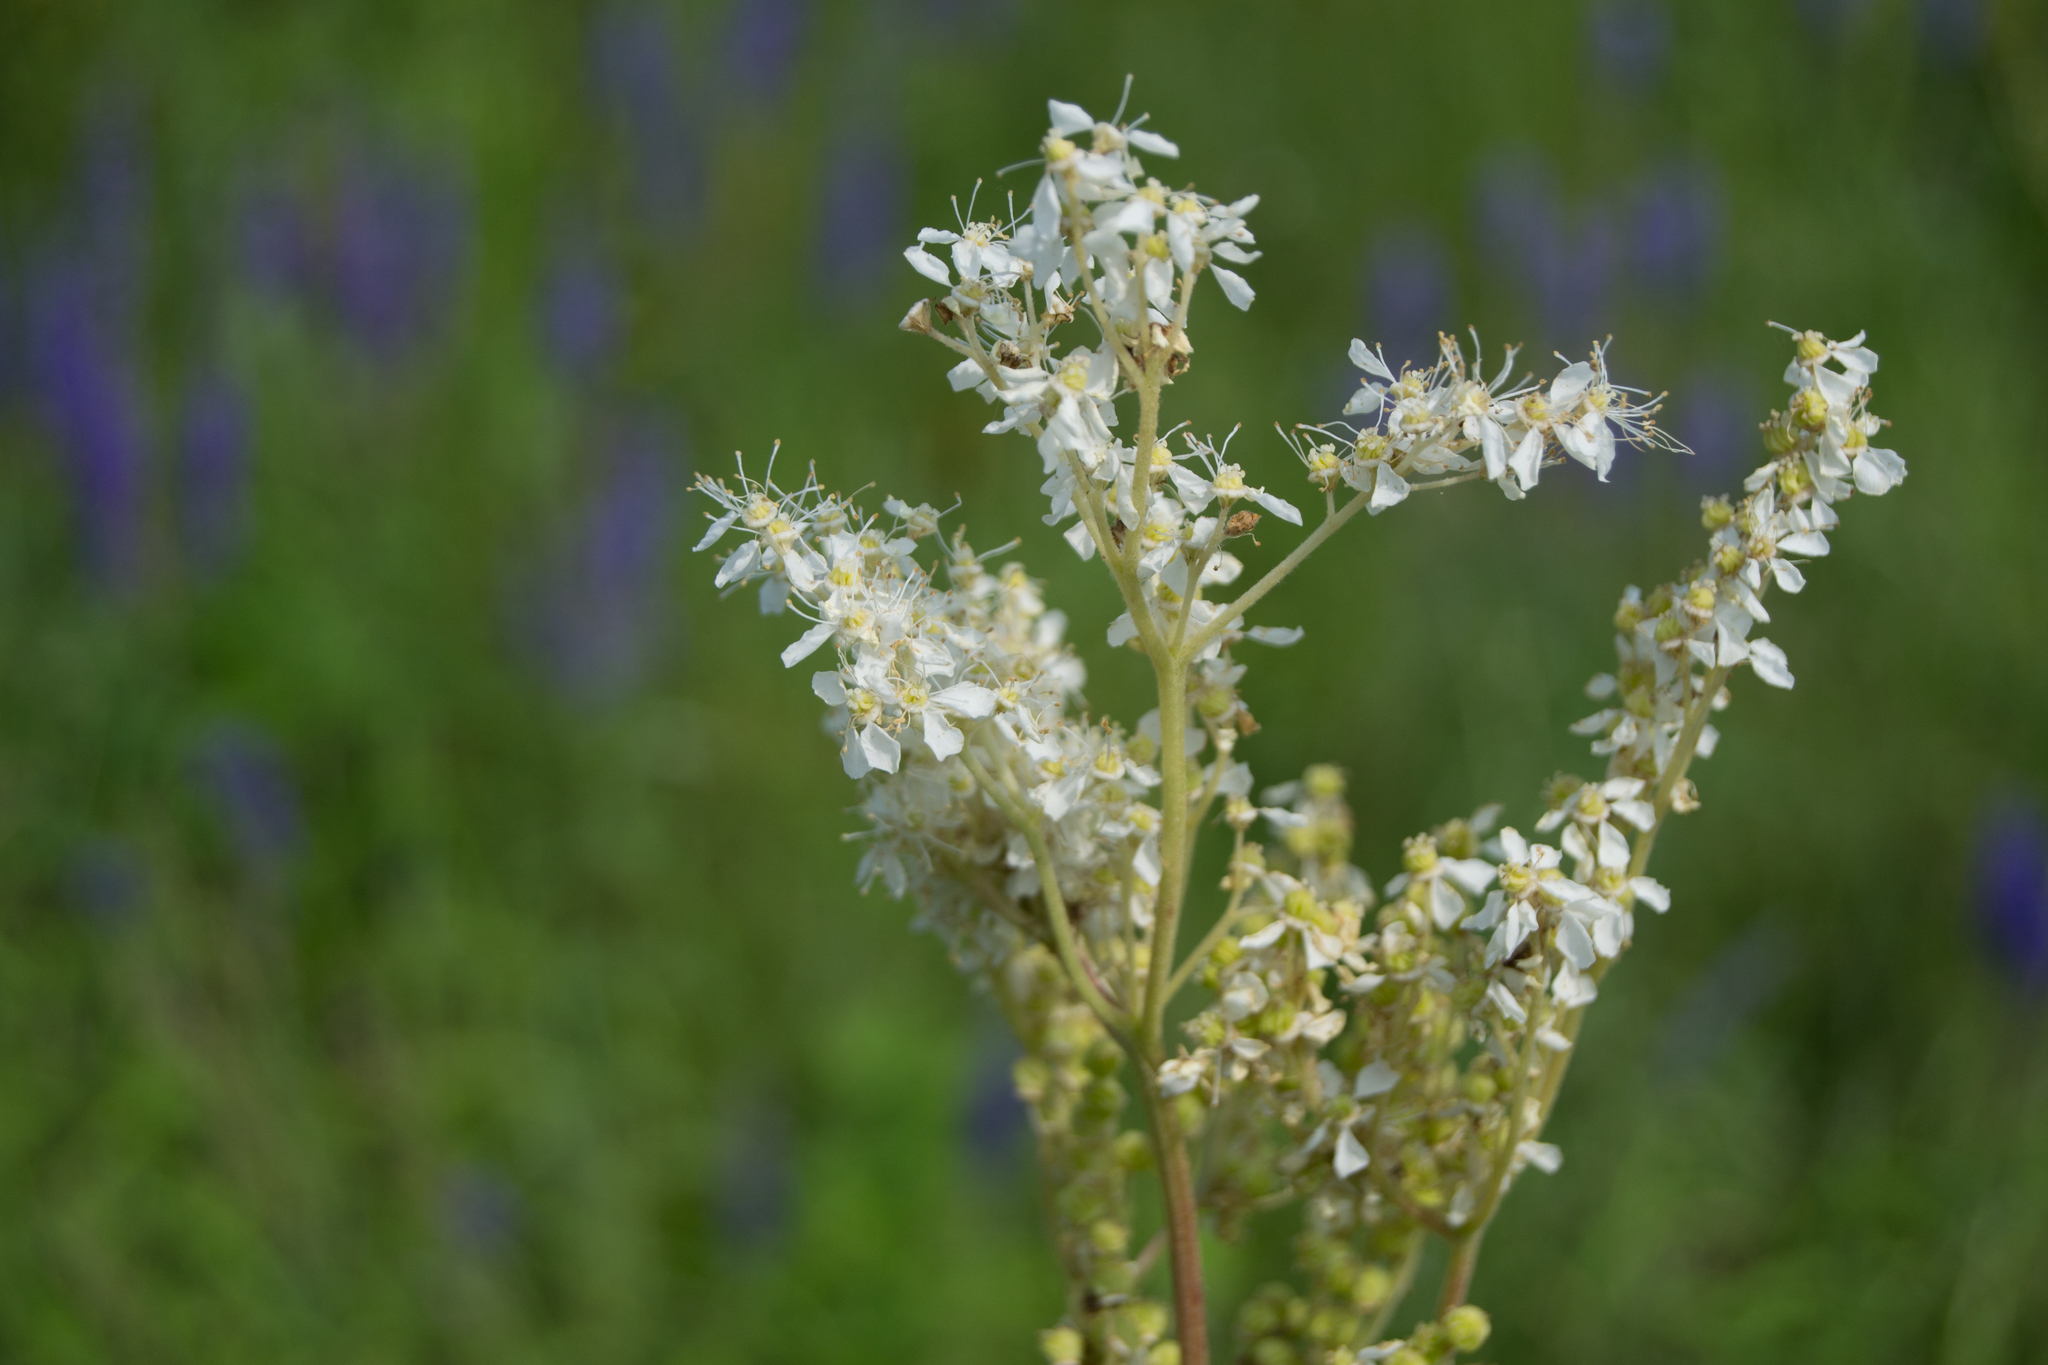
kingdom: Plantae
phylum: Tracheophyta
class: Magnoliopsida
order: Rosales
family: Rosaceae
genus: Filipendula
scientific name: Filipendula vulgaris
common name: Dropwort
